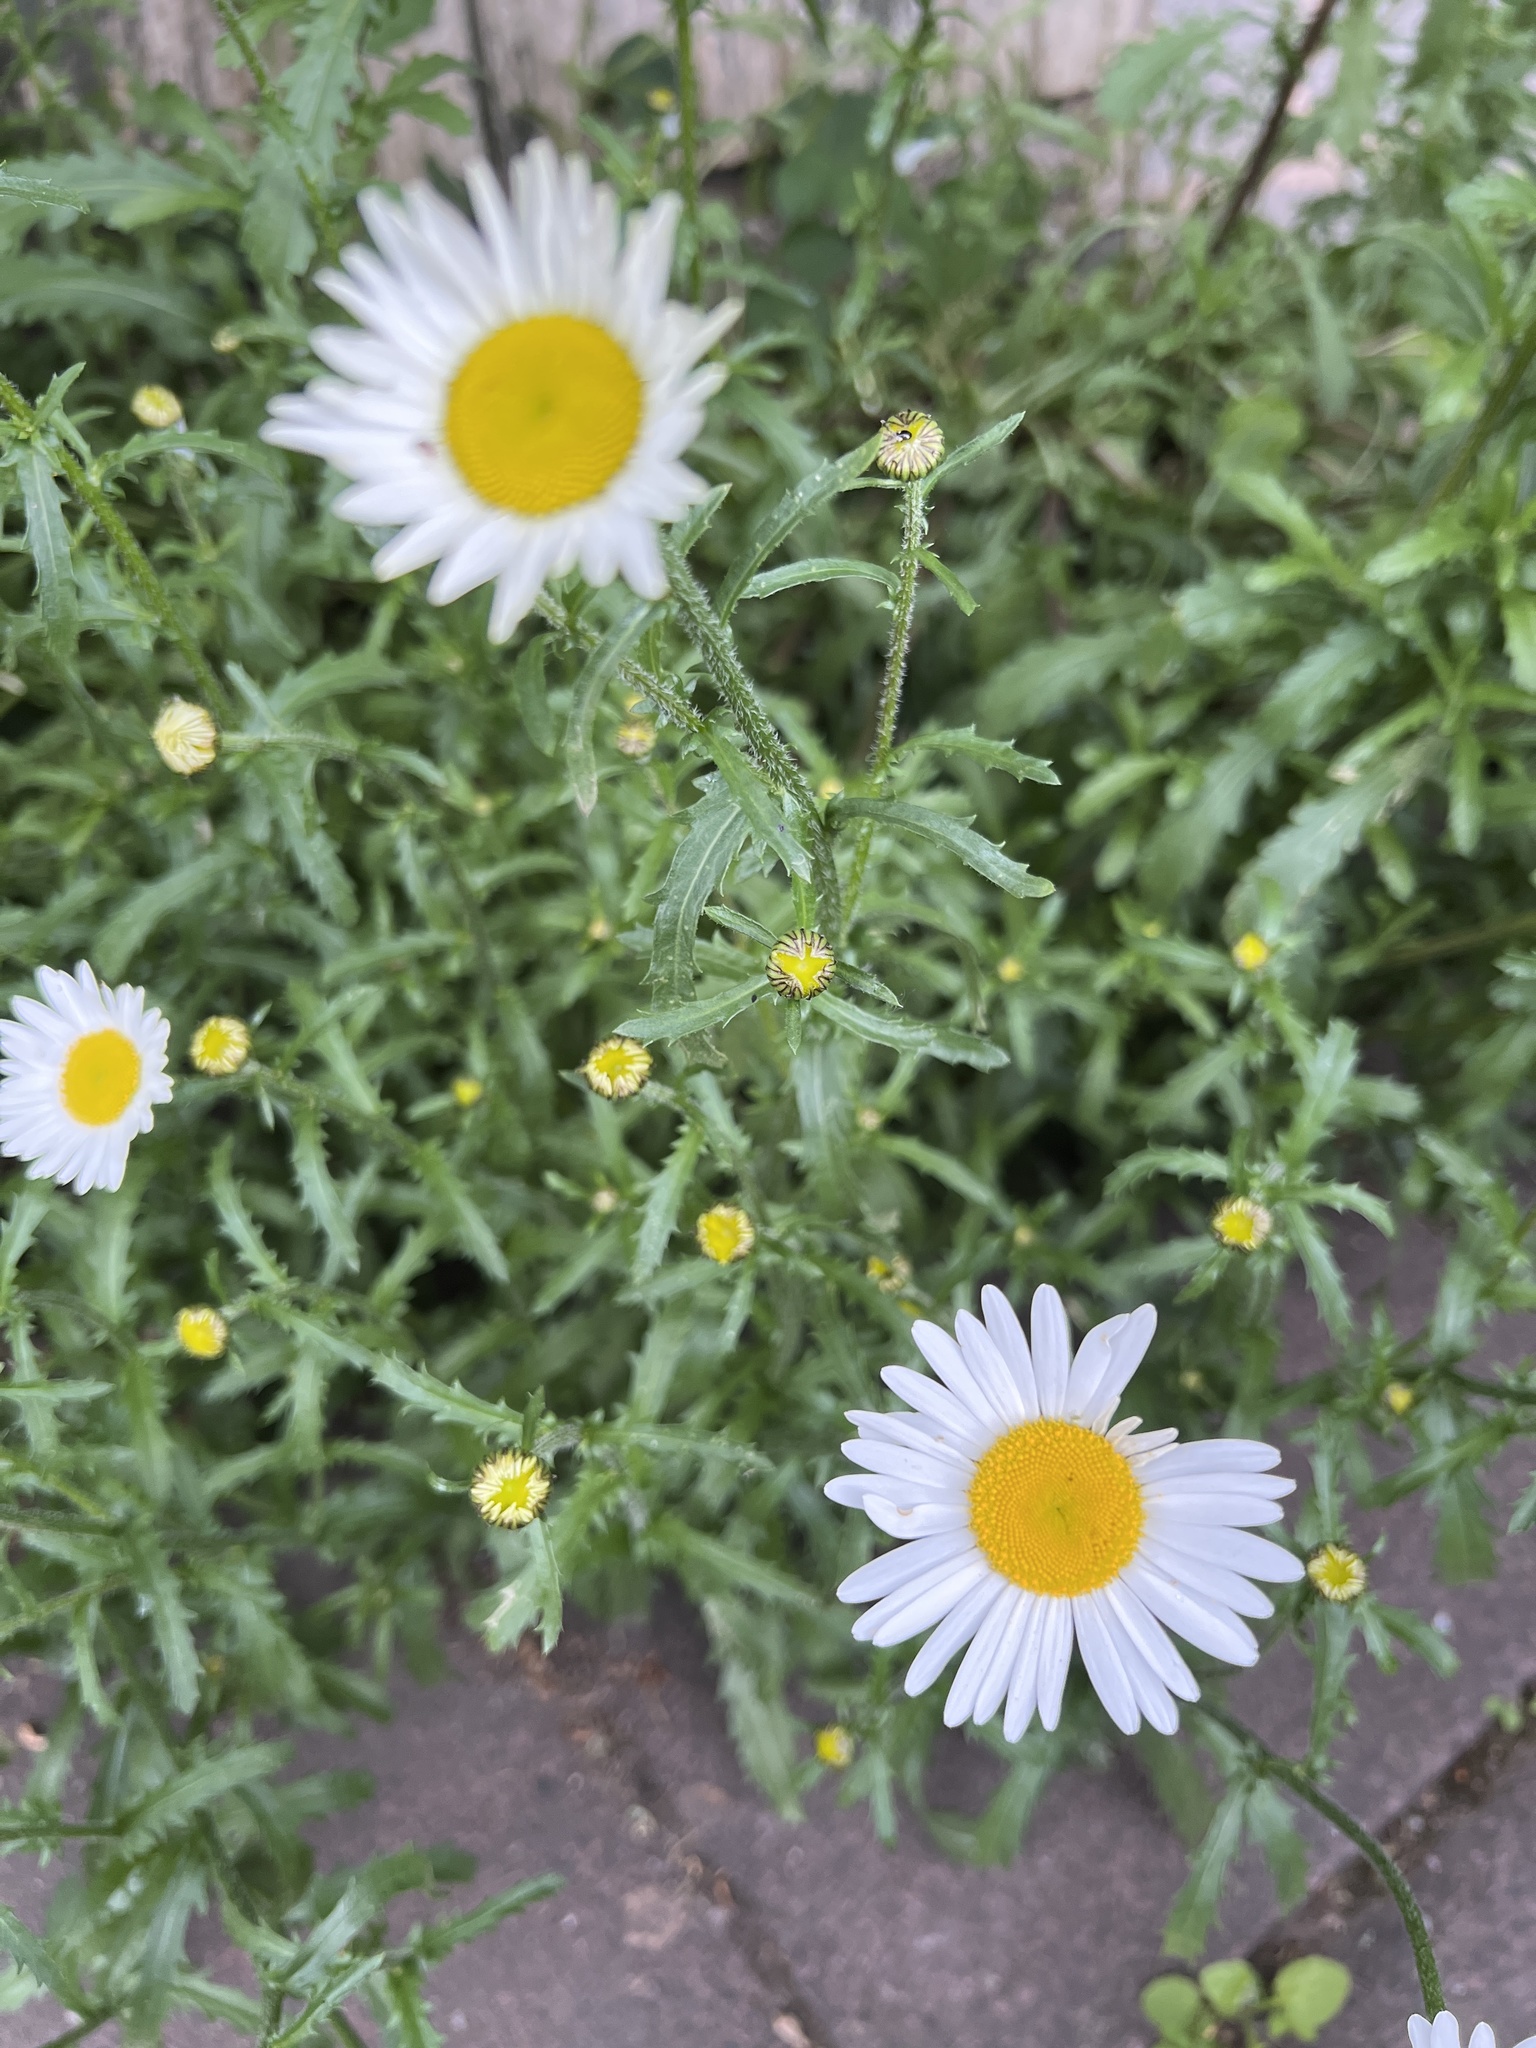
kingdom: Plantae
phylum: Tracheophyta
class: Magnoliopsida
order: Asterales
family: Asteraceae
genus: Leucanthemum
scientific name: Leucanthemum vulgare
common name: Oxeye daisy
